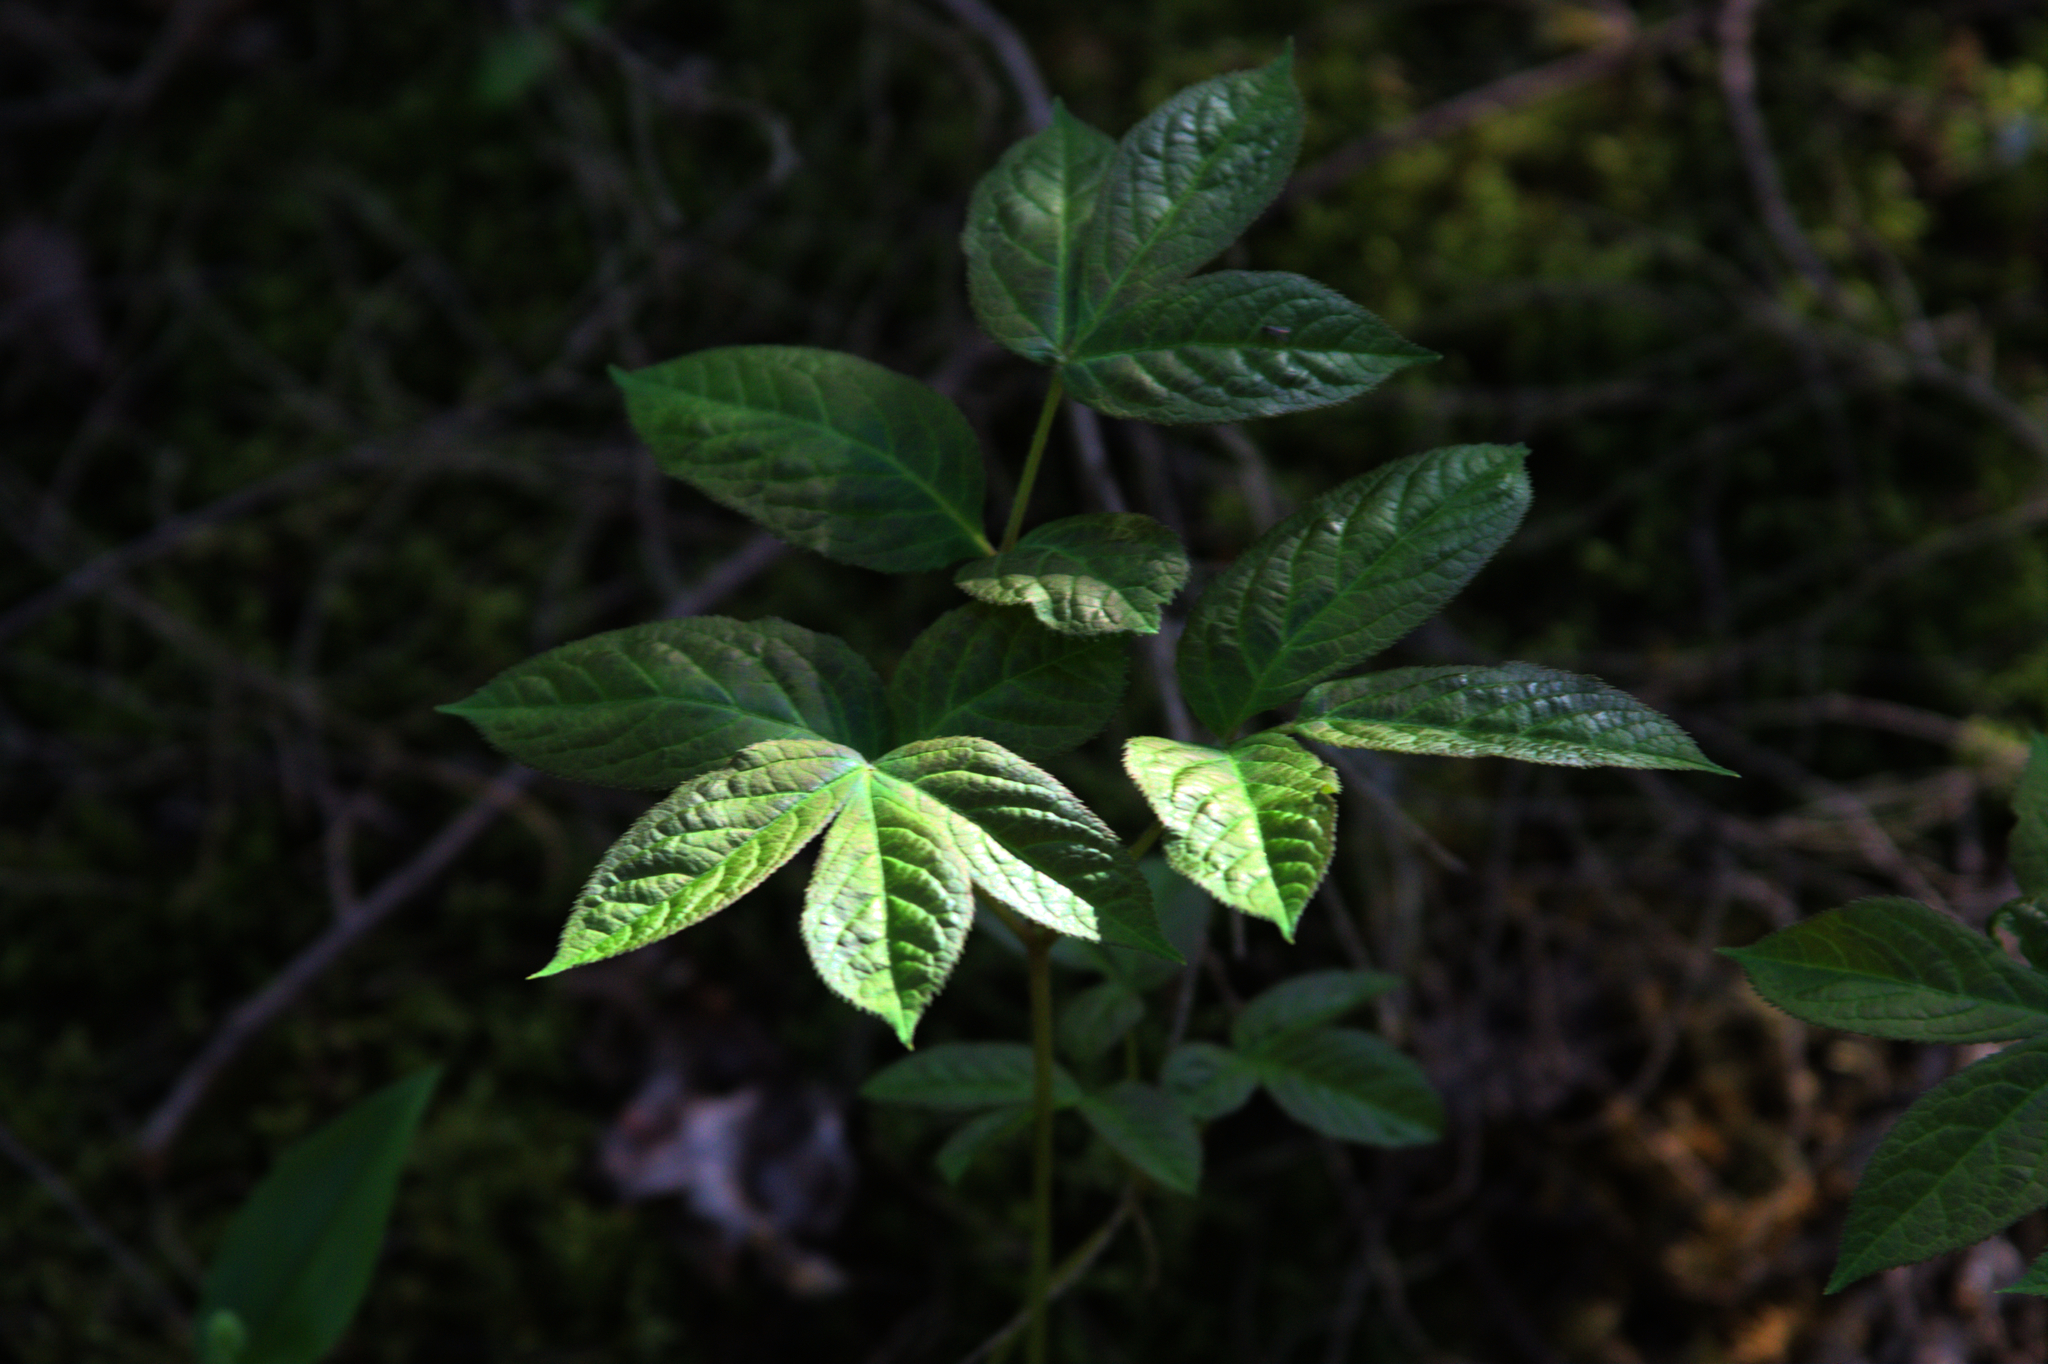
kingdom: Plantae
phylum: Tracheophyta
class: Magnoliopsida
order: Apiales
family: Araliaceae
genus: Aralia
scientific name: Aralia nudicaulis
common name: Wild sarsaparilla
